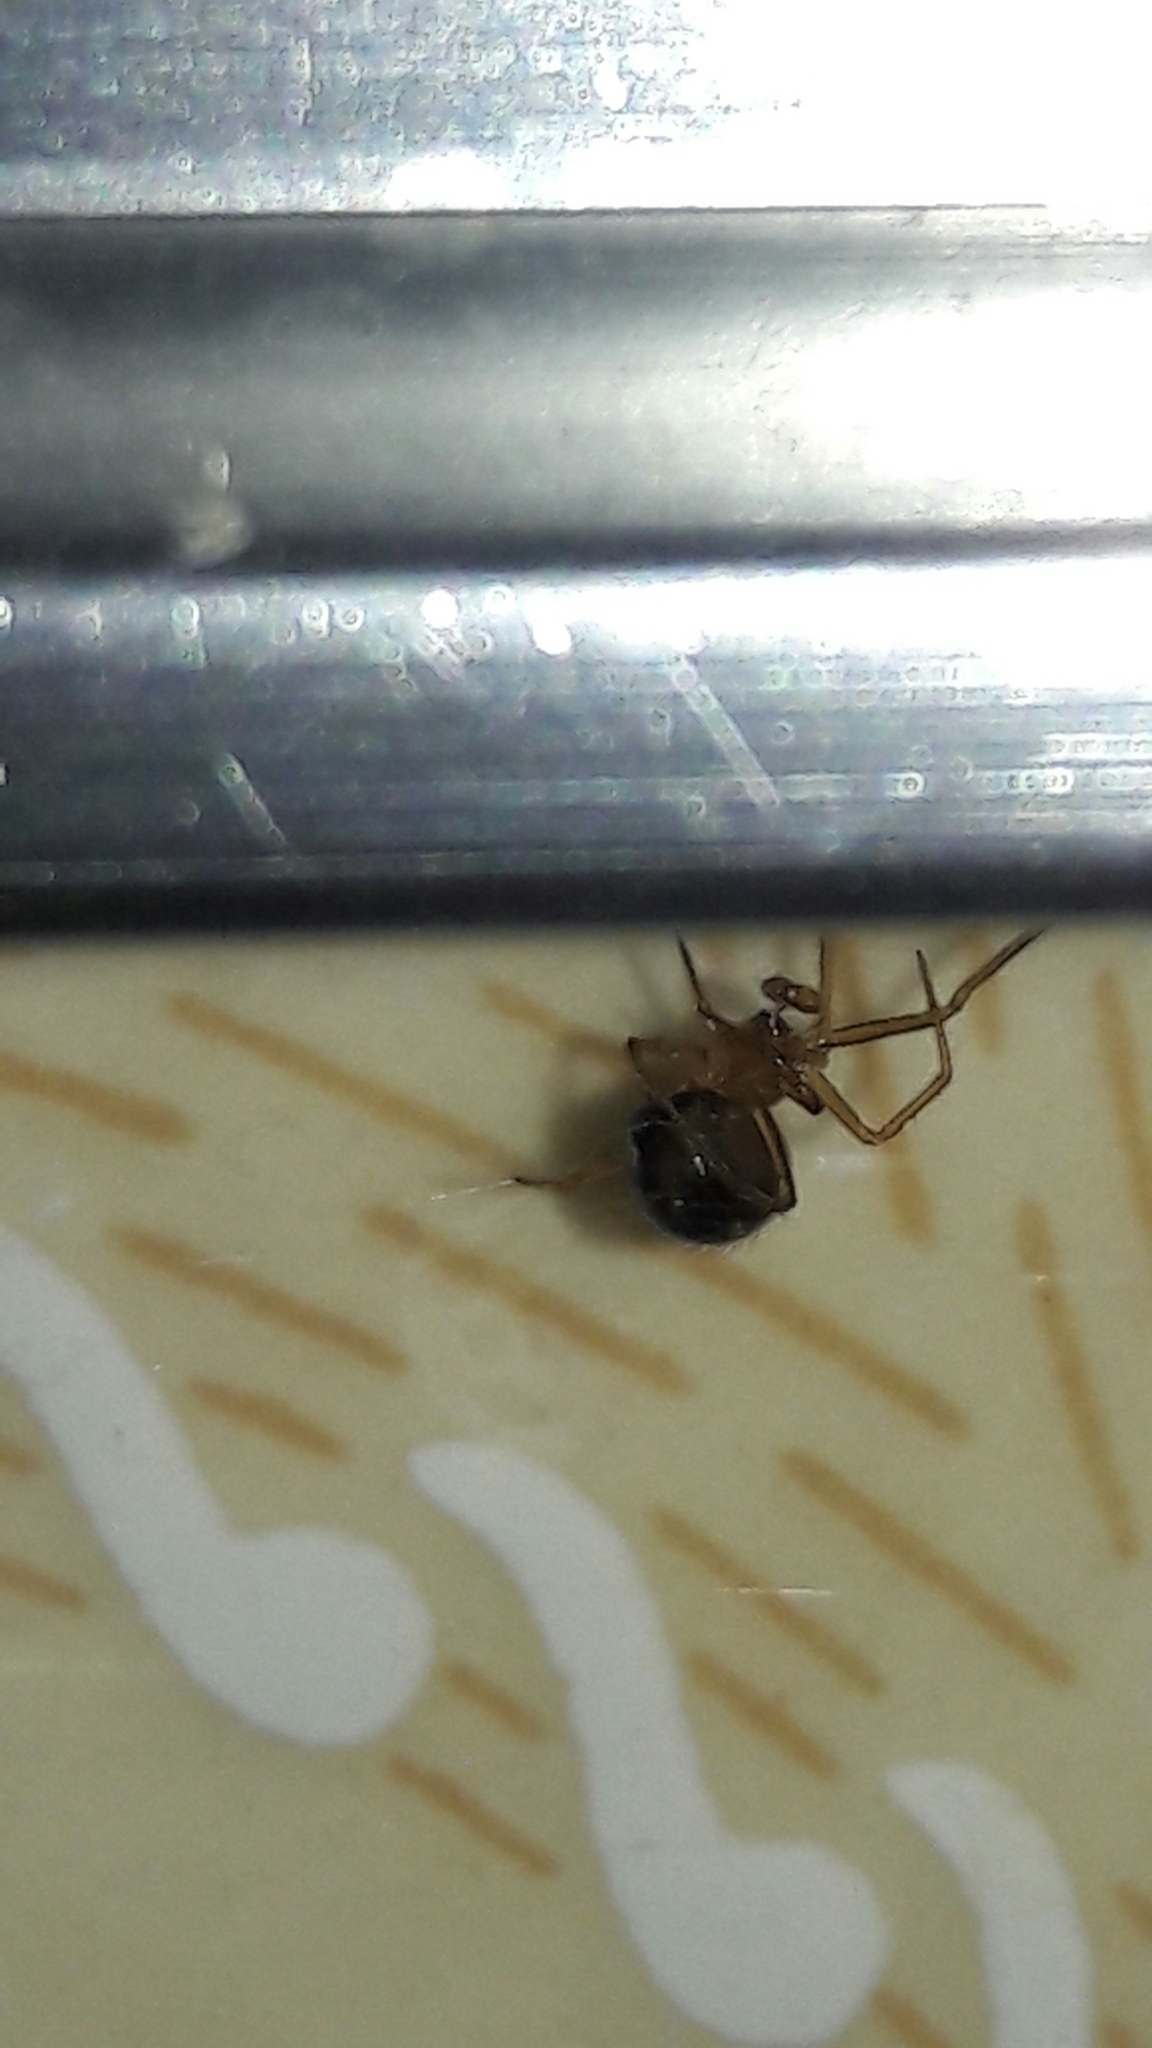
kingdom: Animalia
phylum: Arthropoda
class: Arachnida
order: Araneae
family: Theridiidae
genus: Nesticodes
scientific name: Nesticodes rufipes
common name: Cobweb spiders
